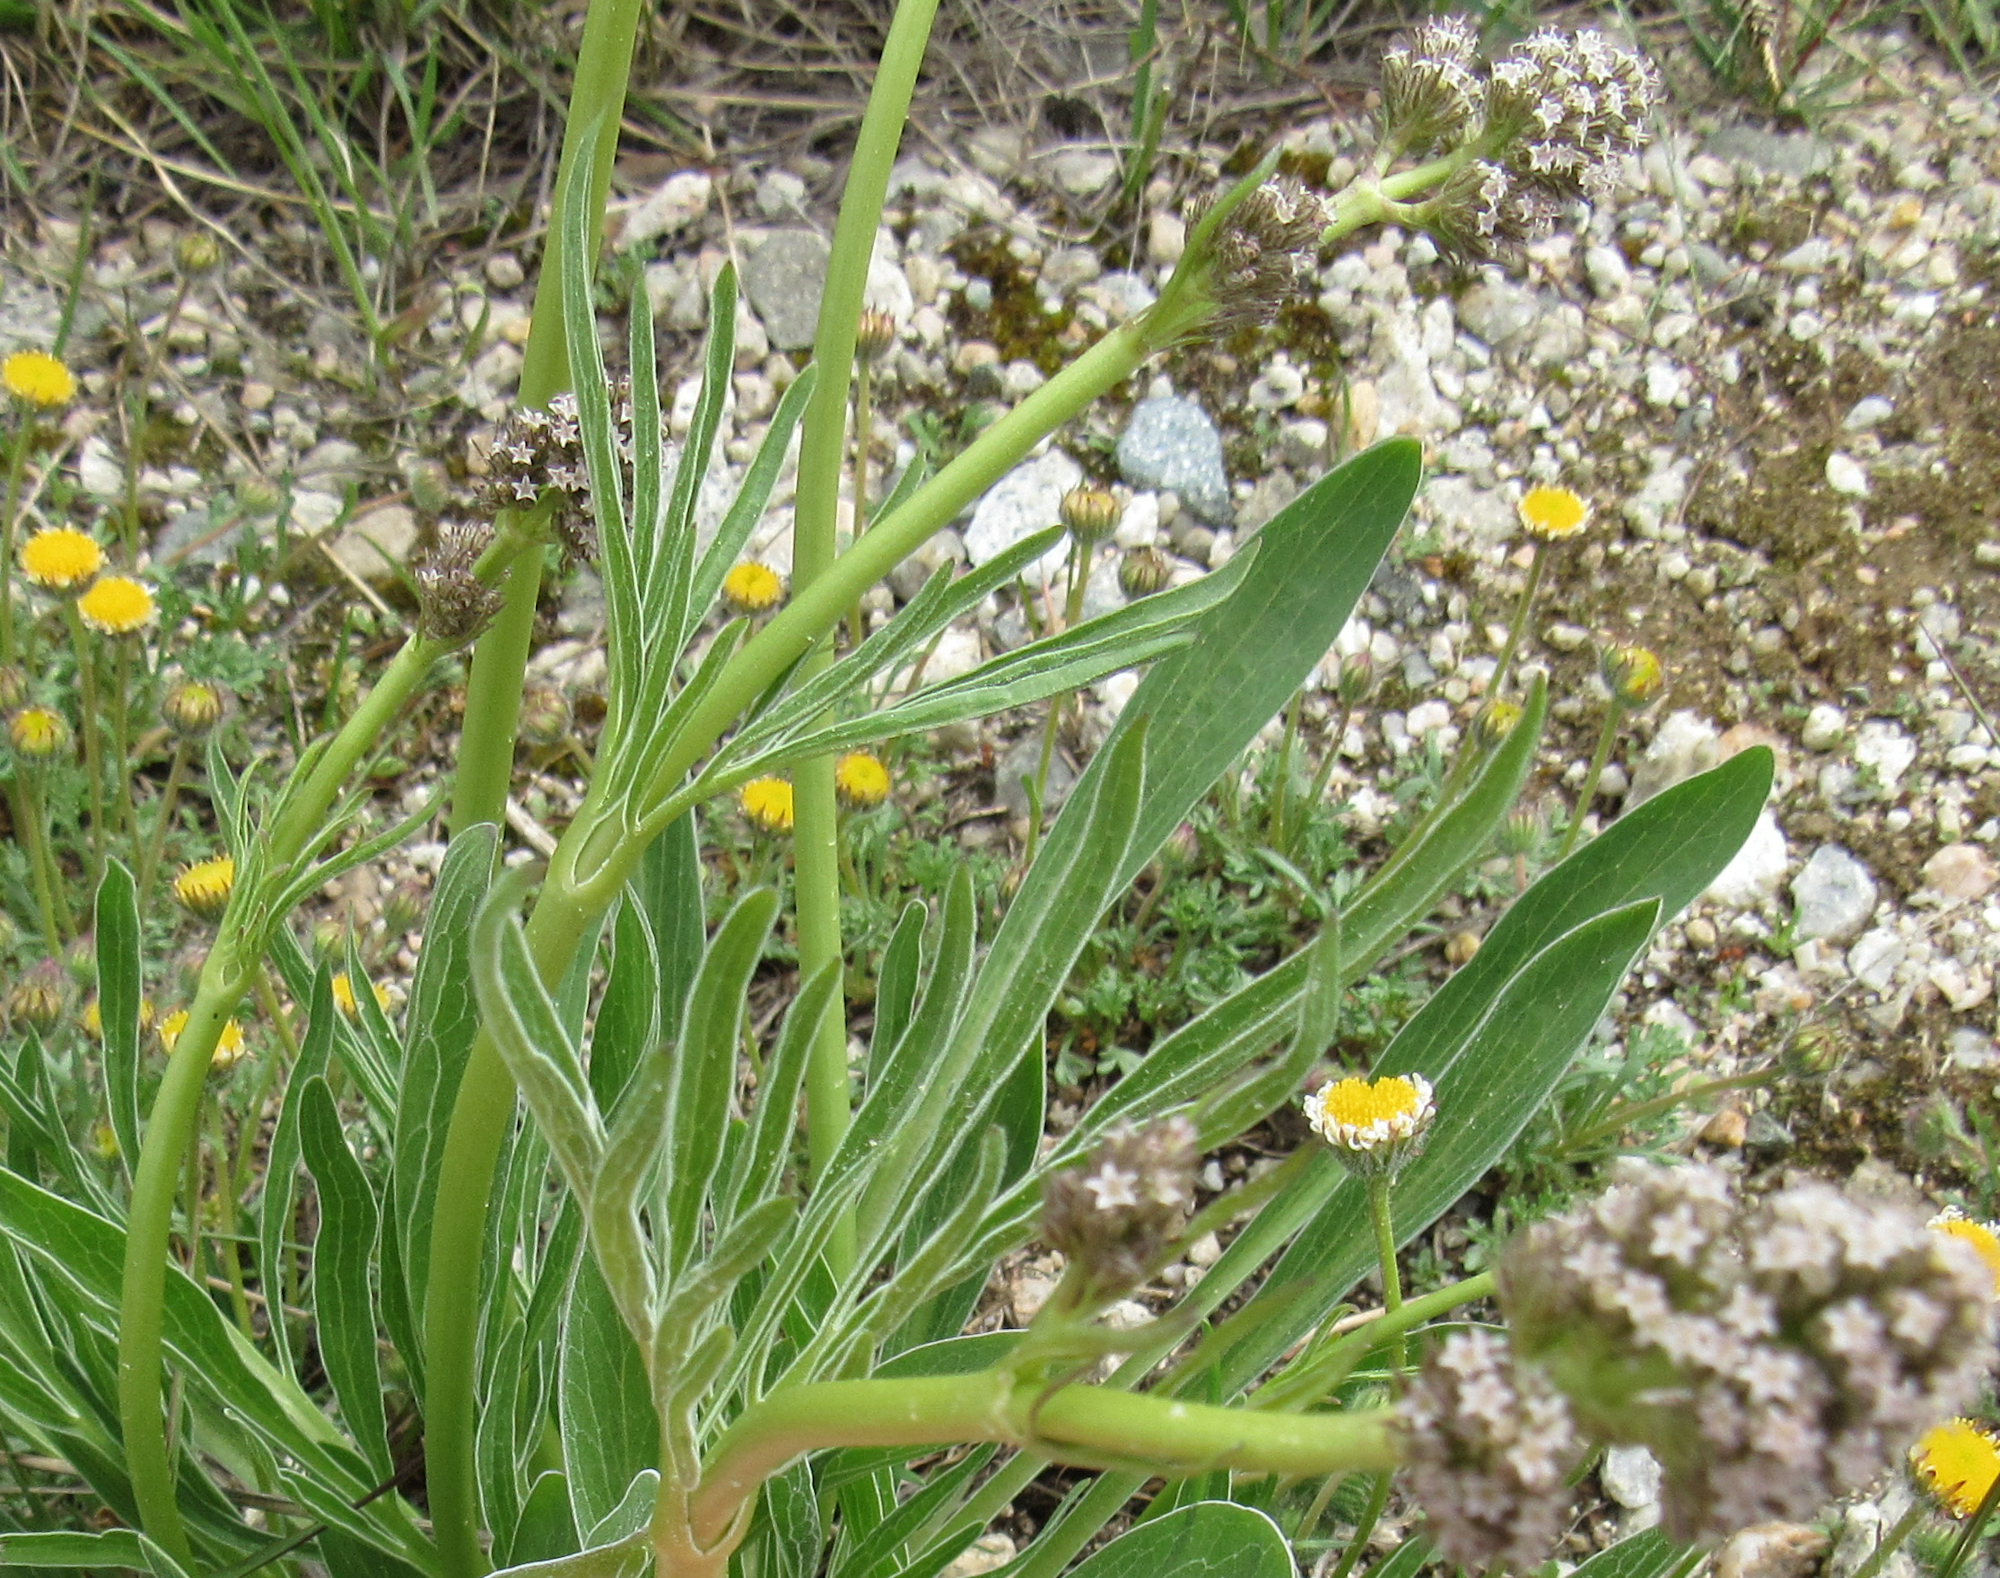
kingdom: Plantae
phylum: Tracheophyta
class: Magnoliopsida
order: Dipsacales
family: Caprifoliaceae
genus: Valeriana
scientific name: Valeriana edulis
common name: Taproot valerian
